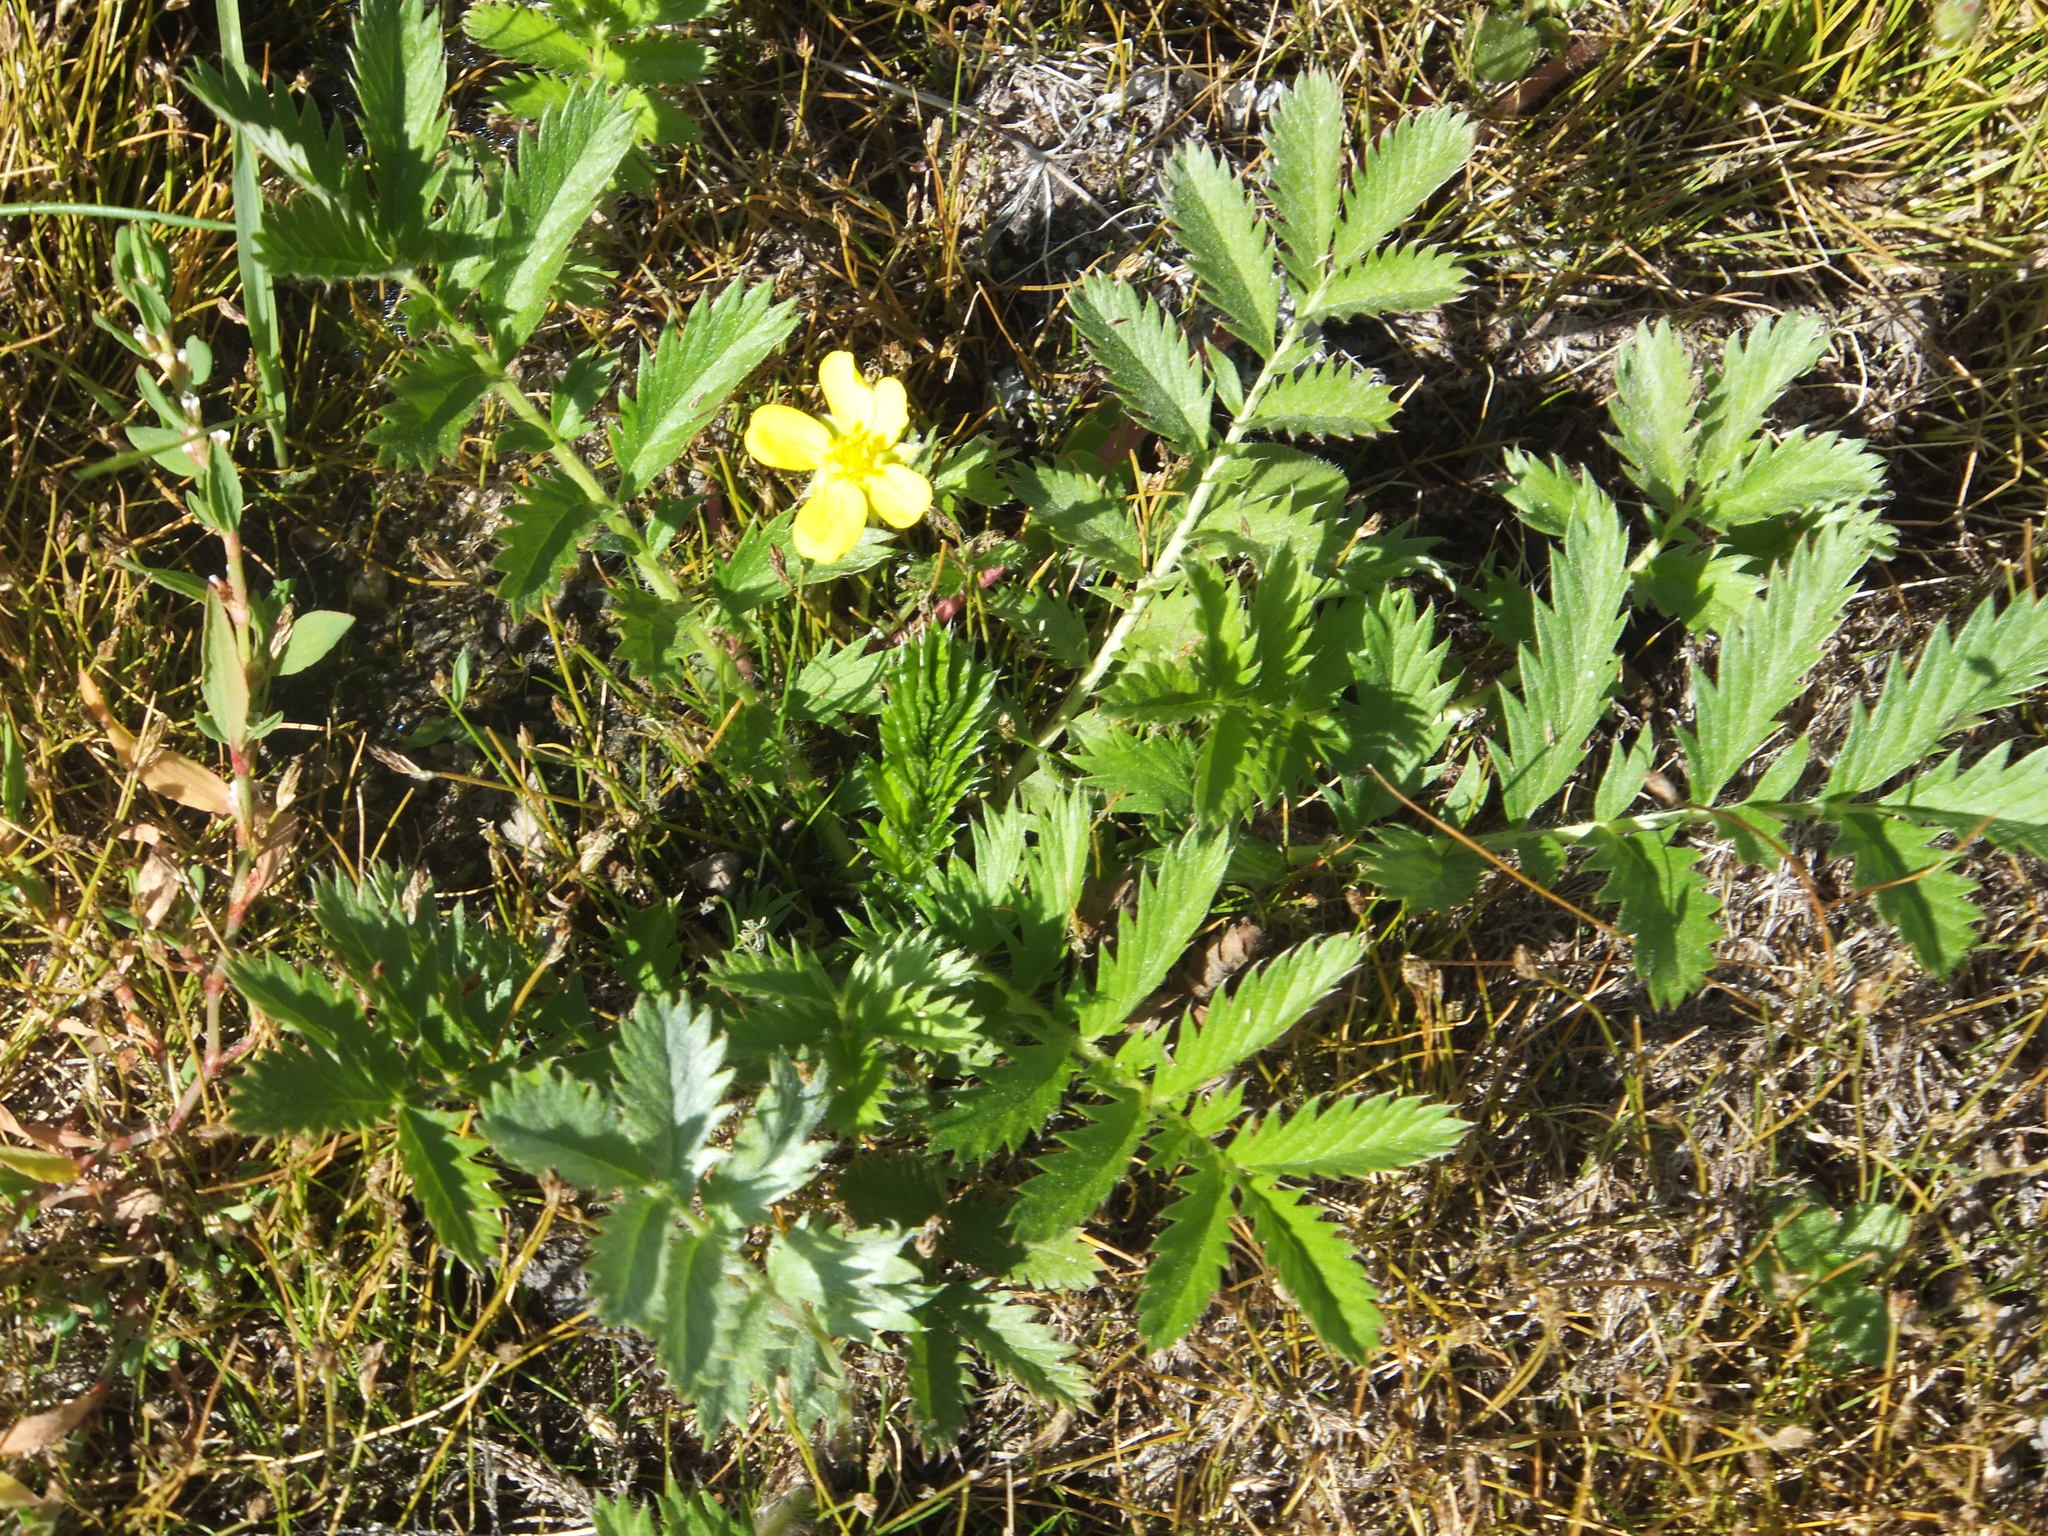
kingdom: Plantae
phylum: Tracheophyta
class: Magnoliopsida
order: Rosales
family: Rosaceae
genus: Argentina
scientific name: Argentina anserina
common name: Common silverweed
